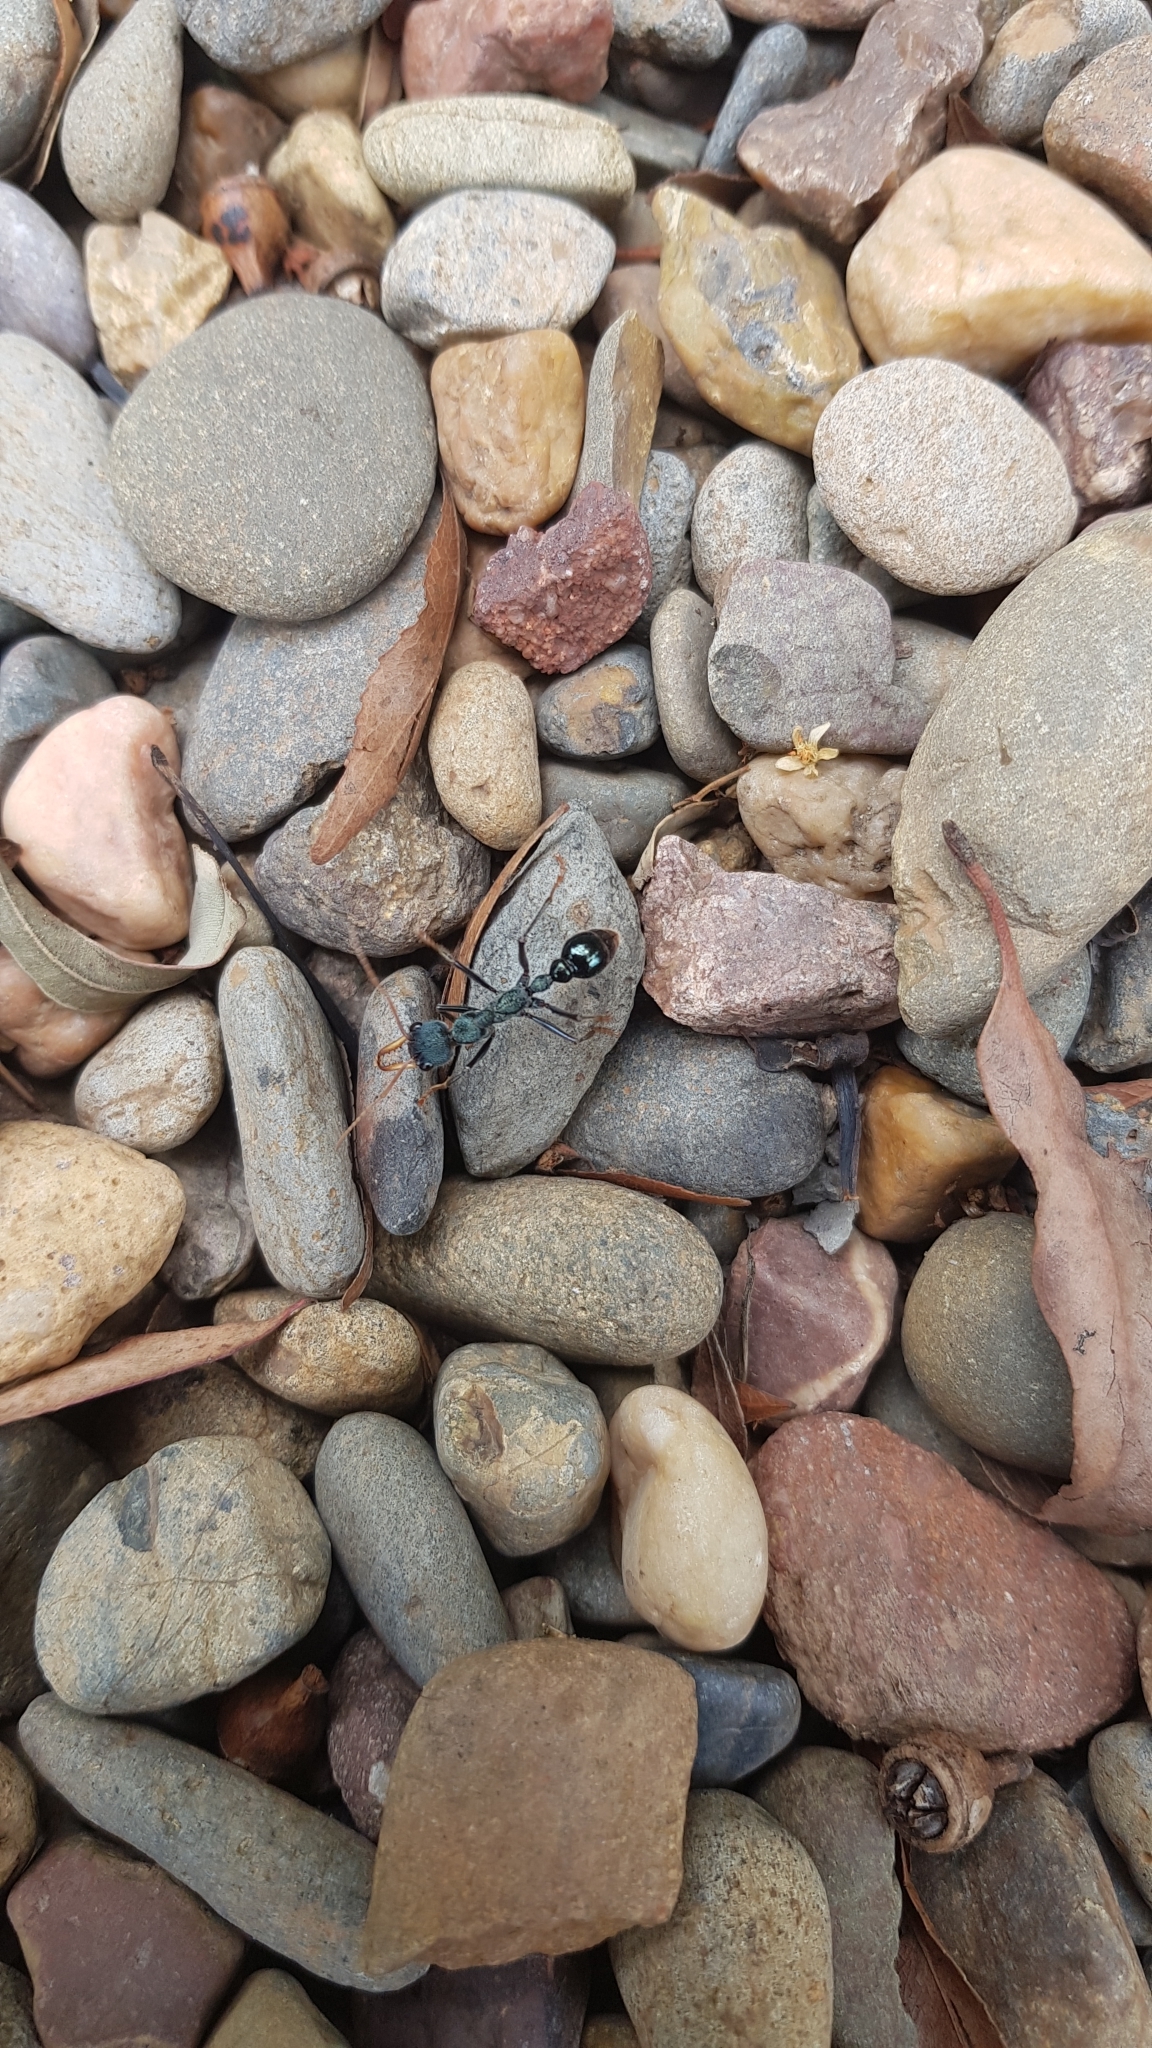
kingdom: Animalia
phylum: Arthropoda
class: Insecta
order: Hymenoptera
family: Formicidae
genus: Myrmecia
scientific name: Myrmecia tarsata
